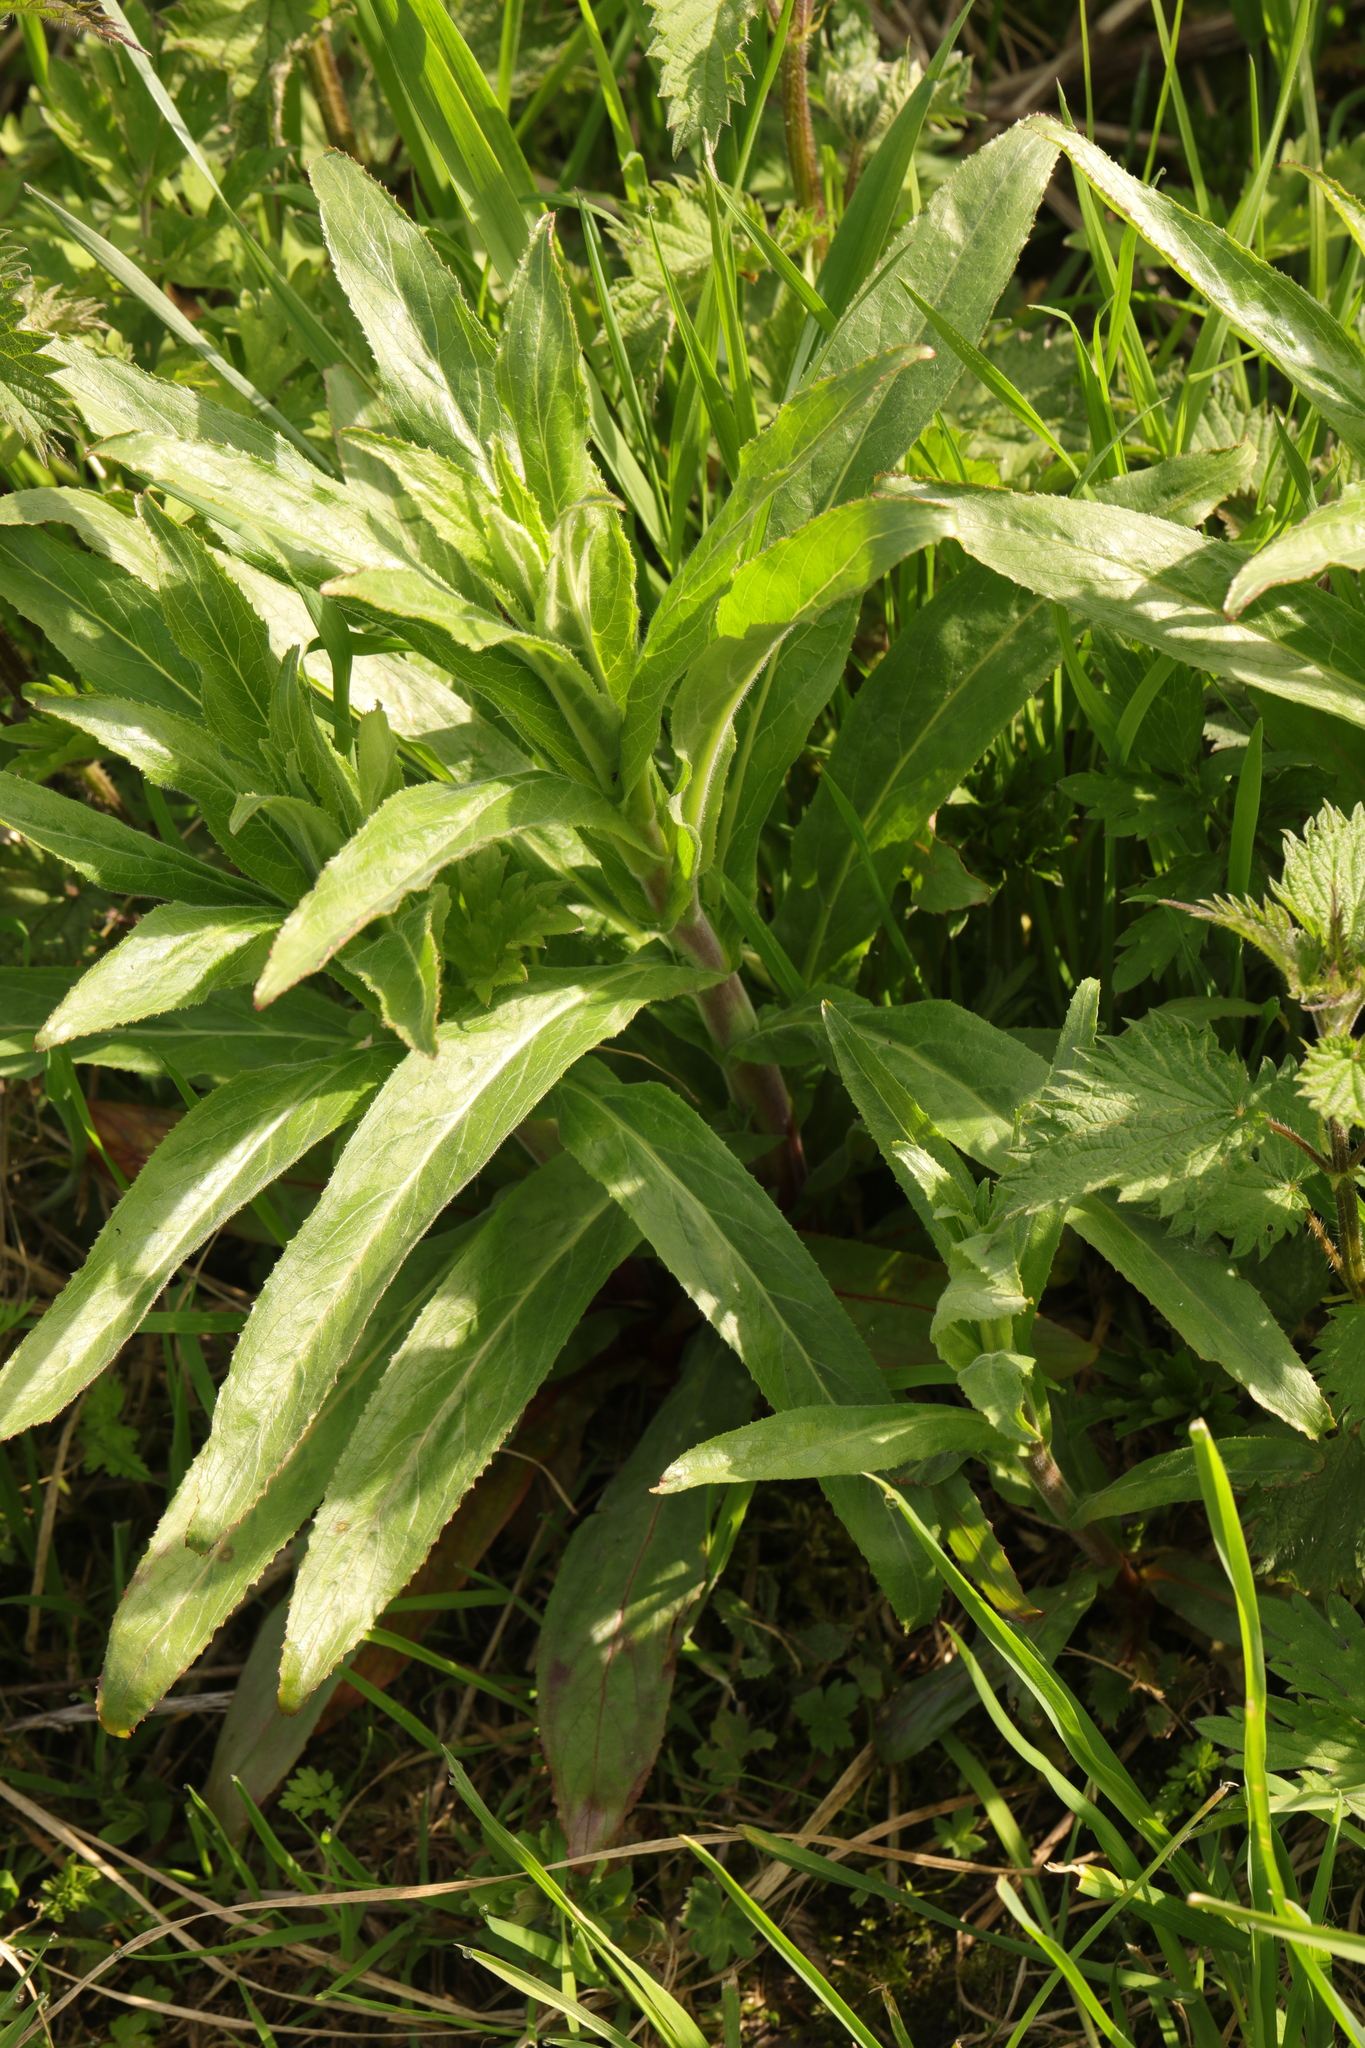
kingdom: Plantae
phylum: Tracheophyta
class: Magnoliopsida
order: Myrtales
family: Onagraceae
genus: Epilobium
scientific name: Epilobium hirsutum
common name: Great willowherb
